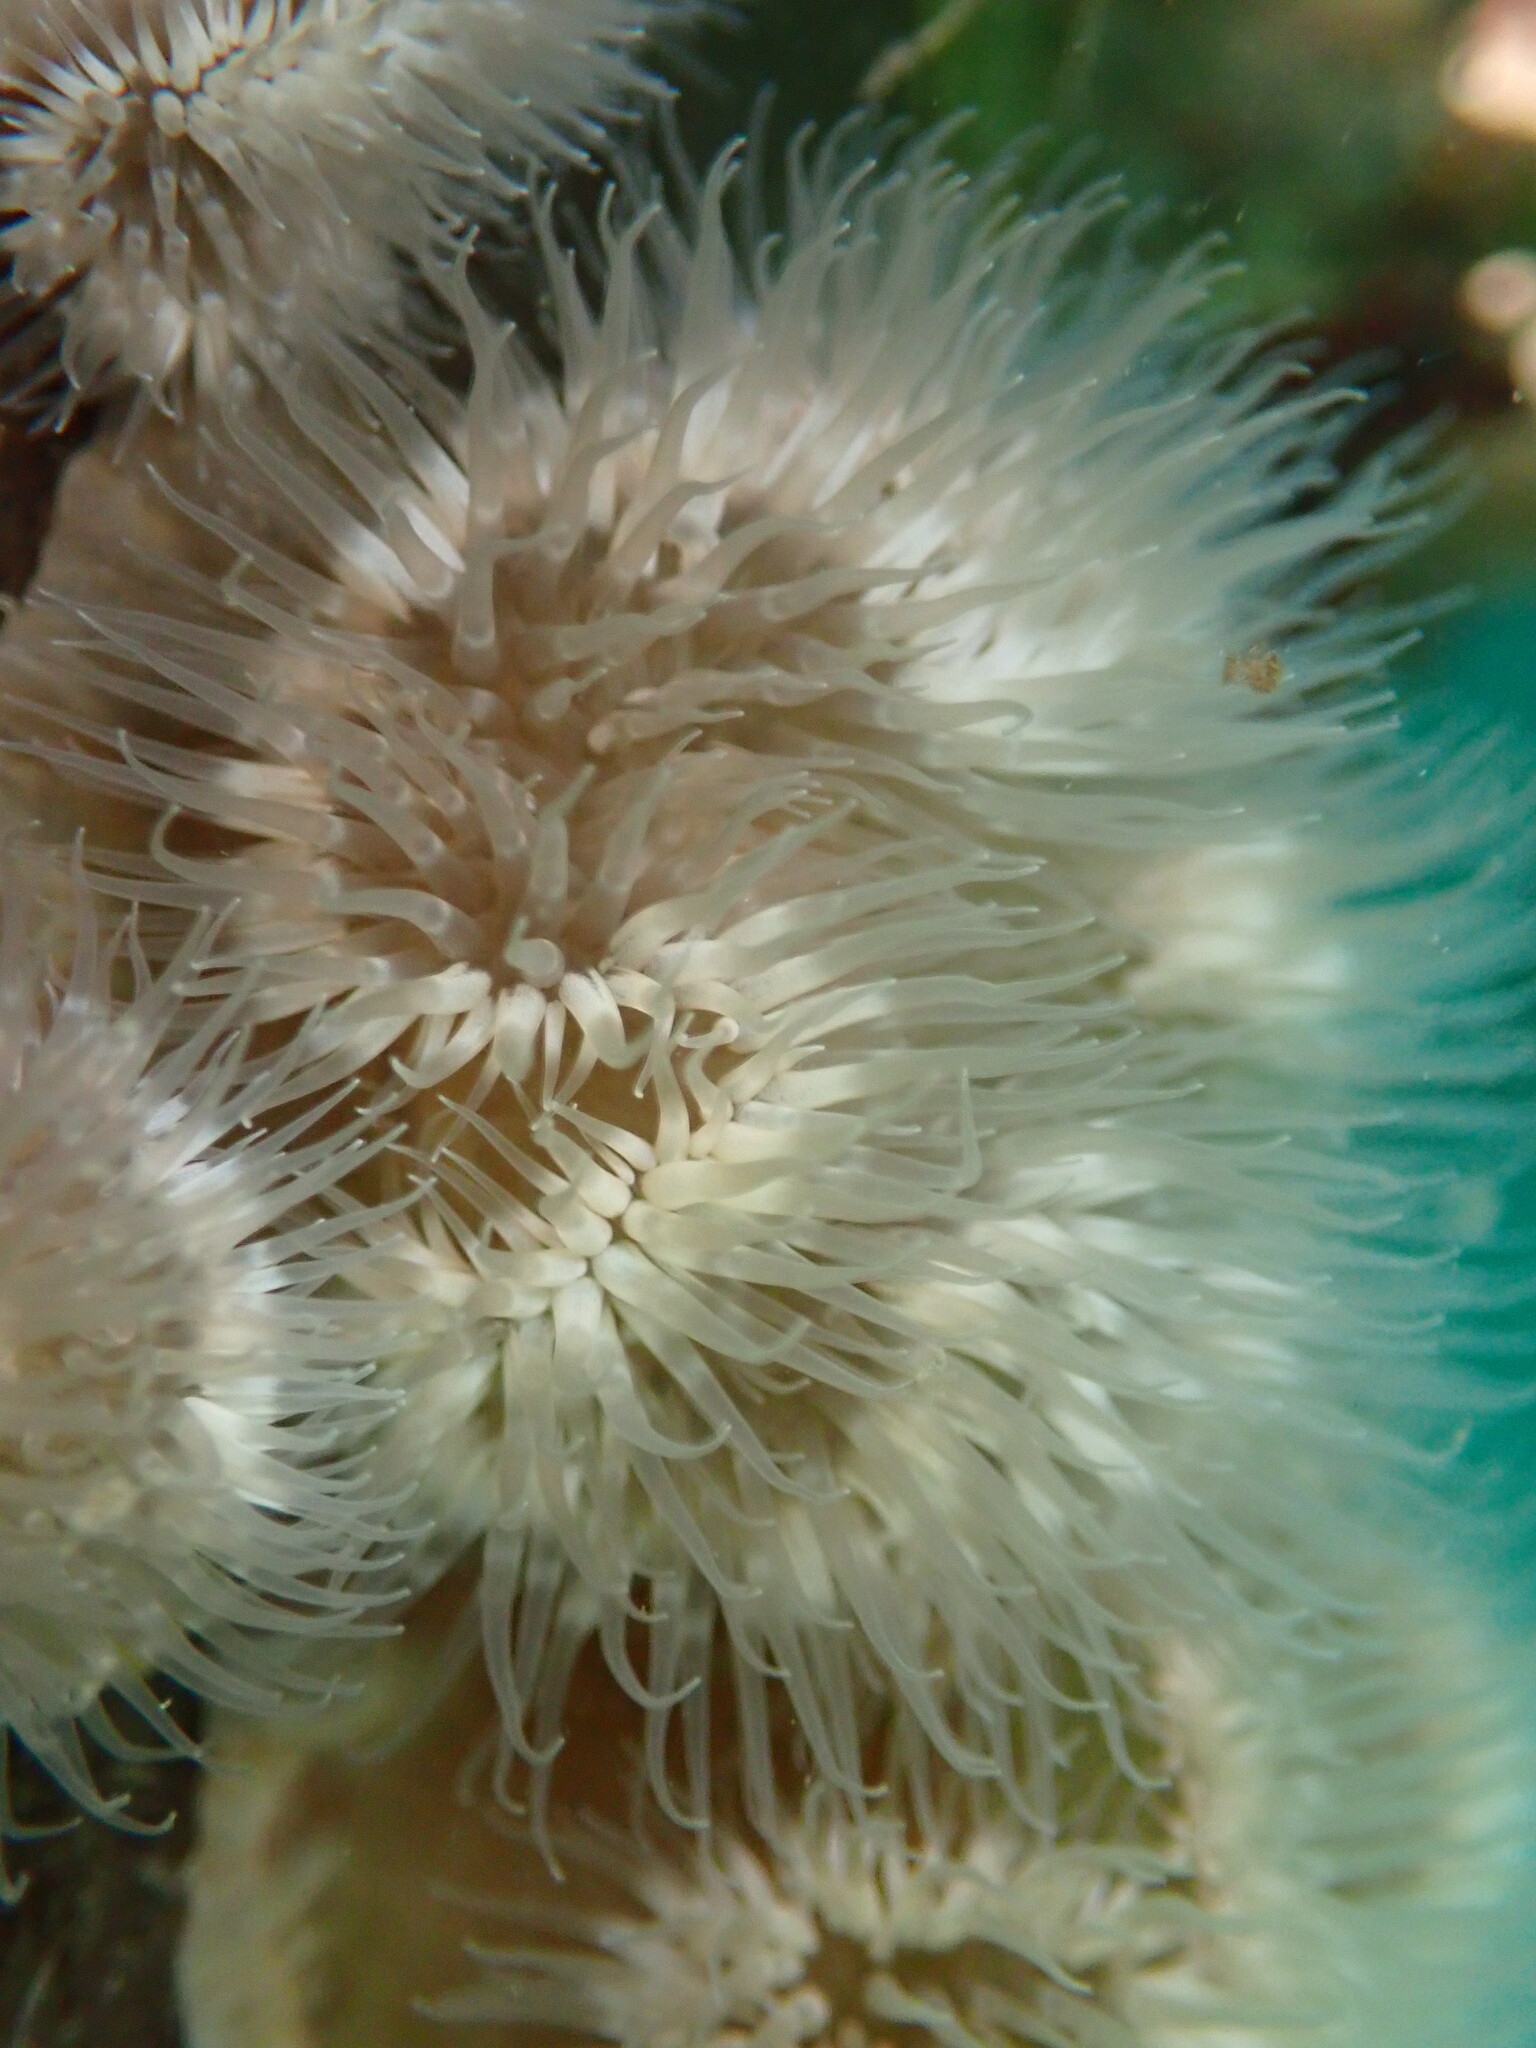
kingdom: Animalia
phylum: Cnidaria
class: Anthozoa
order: Actiniaria
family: Metridiidae
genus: Metridium
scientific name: Metridium senile
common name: Clonal plumose anemone
